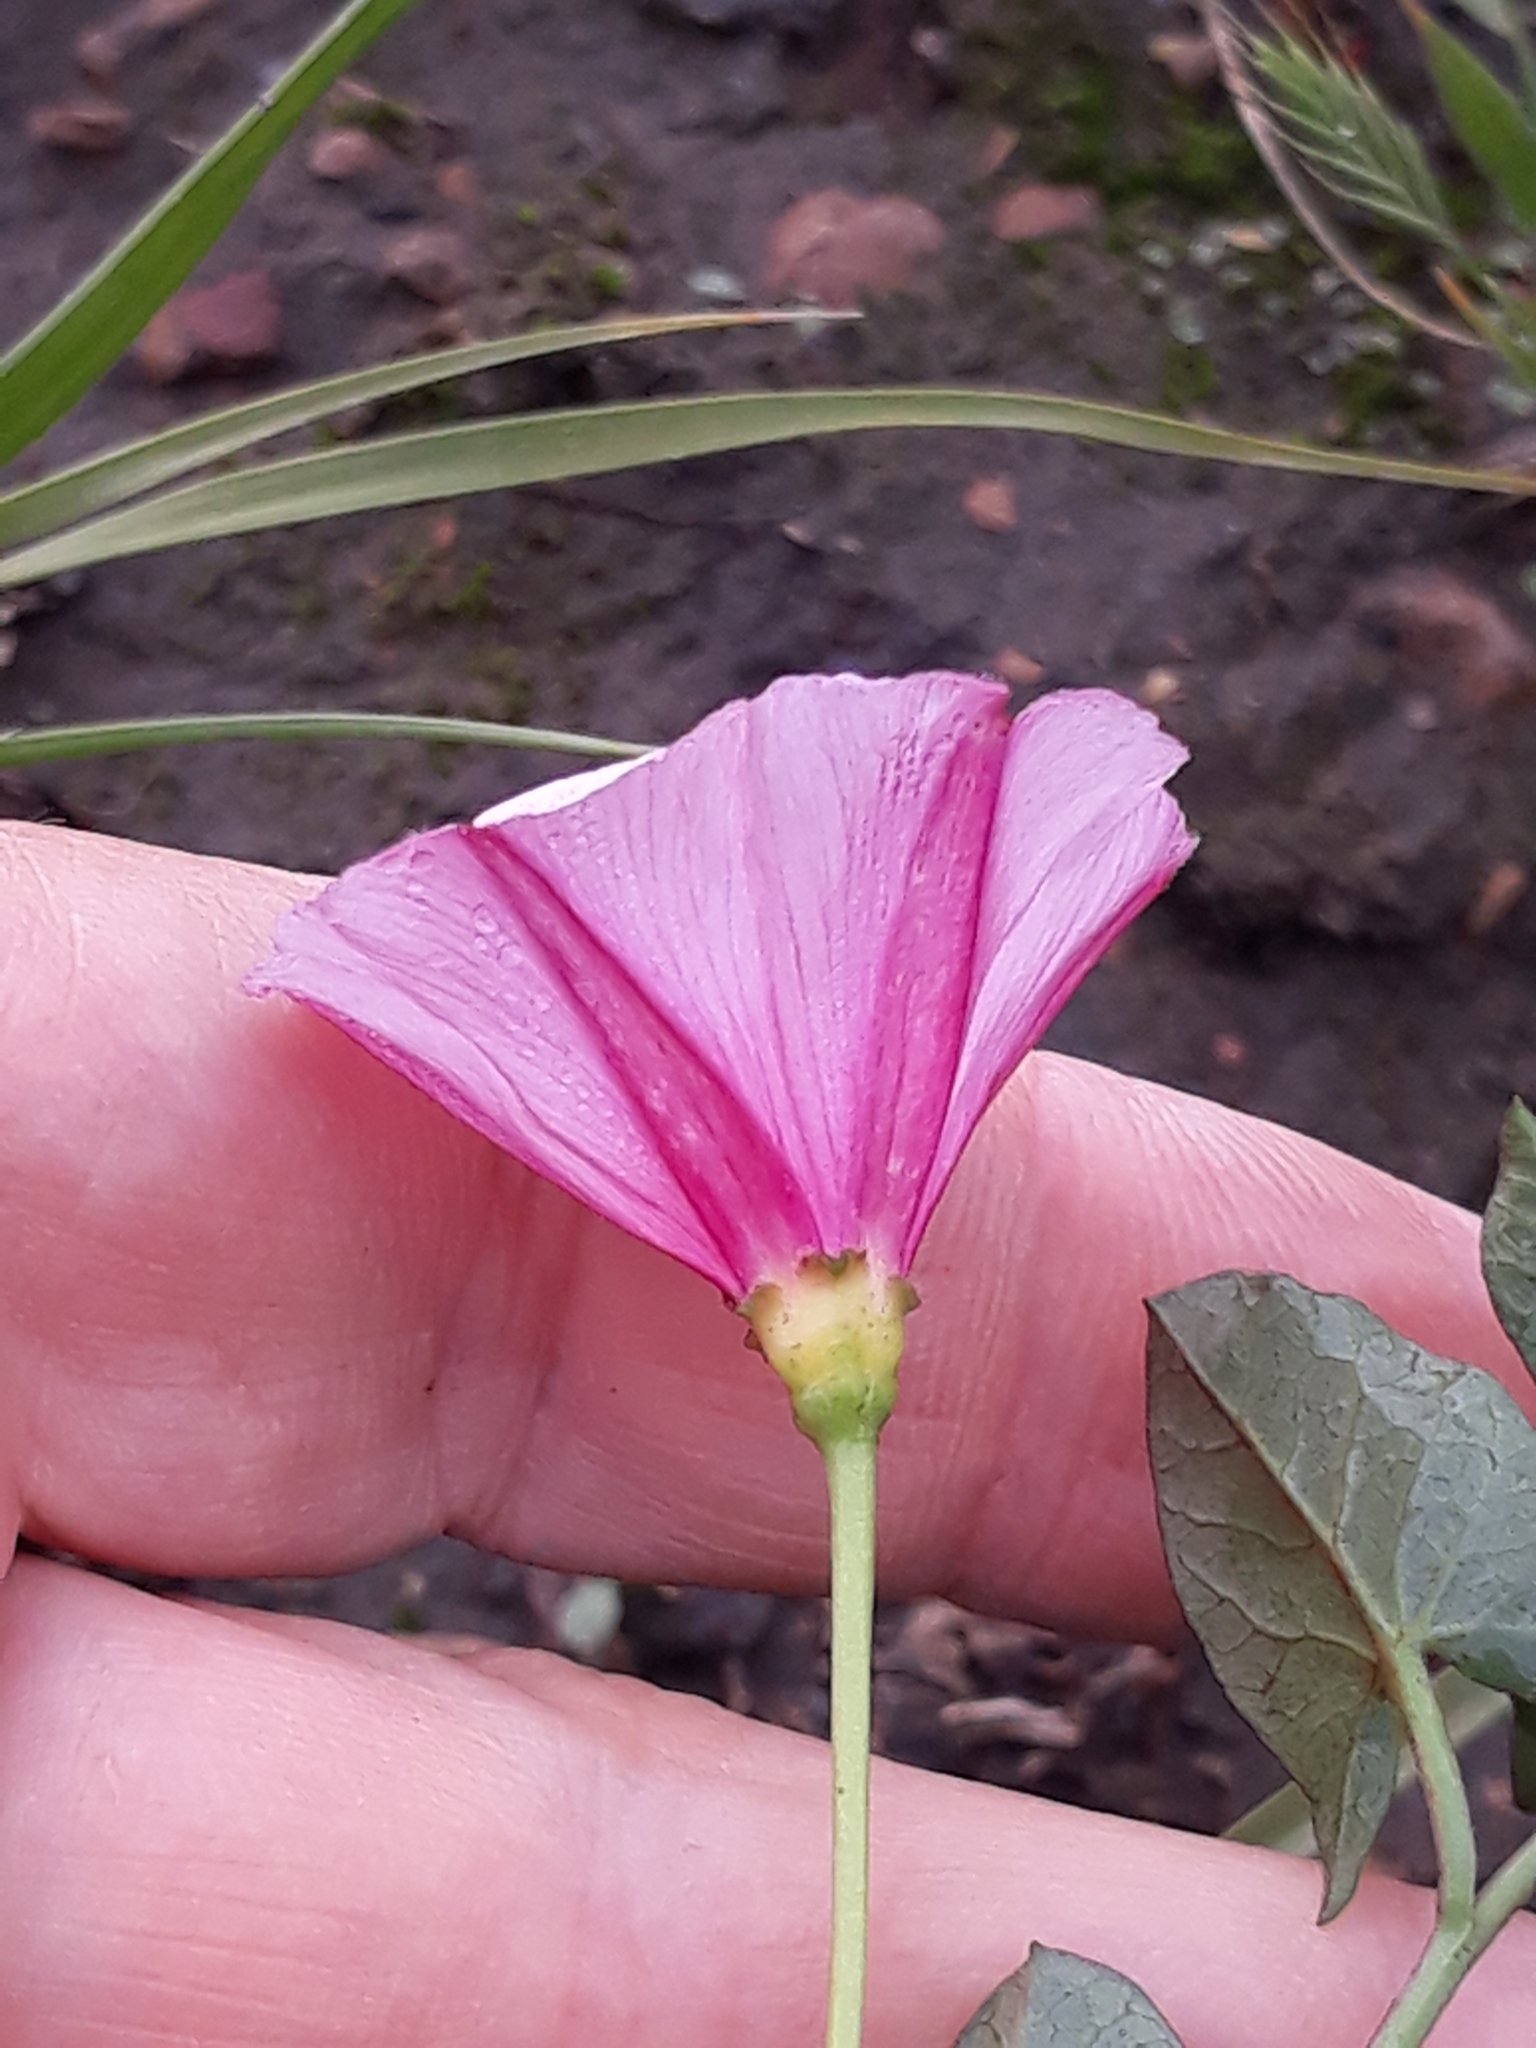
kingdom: Plantae
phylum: Tracheophyta
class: Magnoliopsida
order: Solanales
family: Convolvulaceae
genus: Convolvulus
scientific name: Convolvulus durandoi
